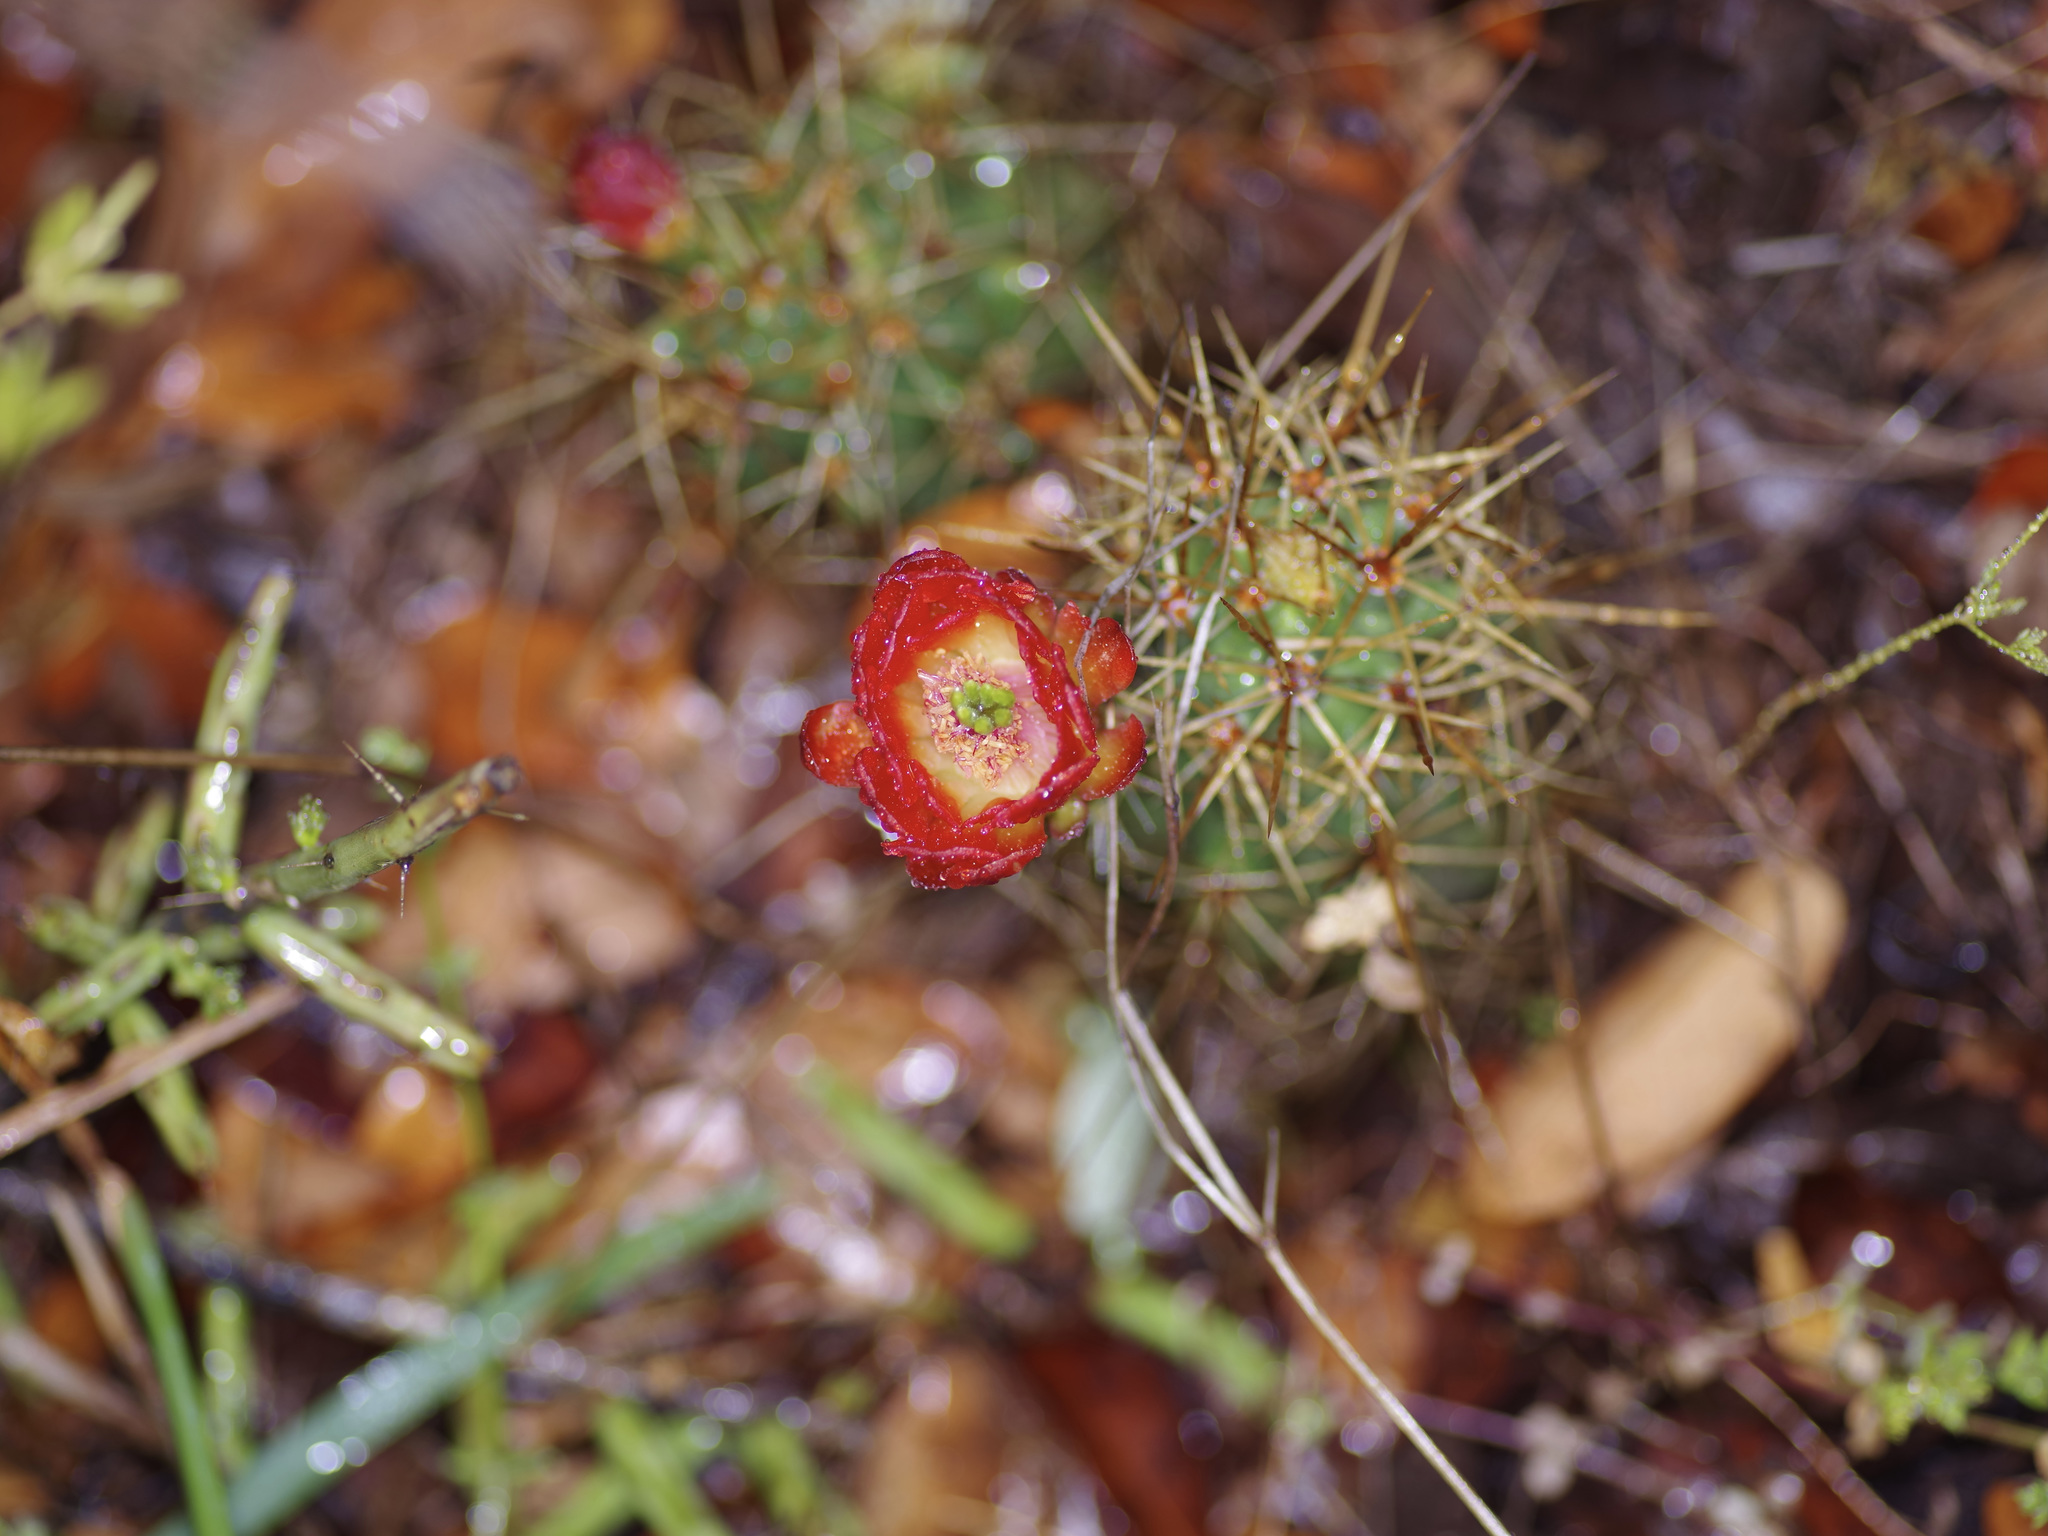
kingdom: Plantae
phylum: Tracheophyta
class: Magnoliopsida
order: Caryophyllales
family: Cactaceae
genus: Echinocereus
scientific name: Echinocereus coccineus
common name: Scarlet hedgehog cactus
